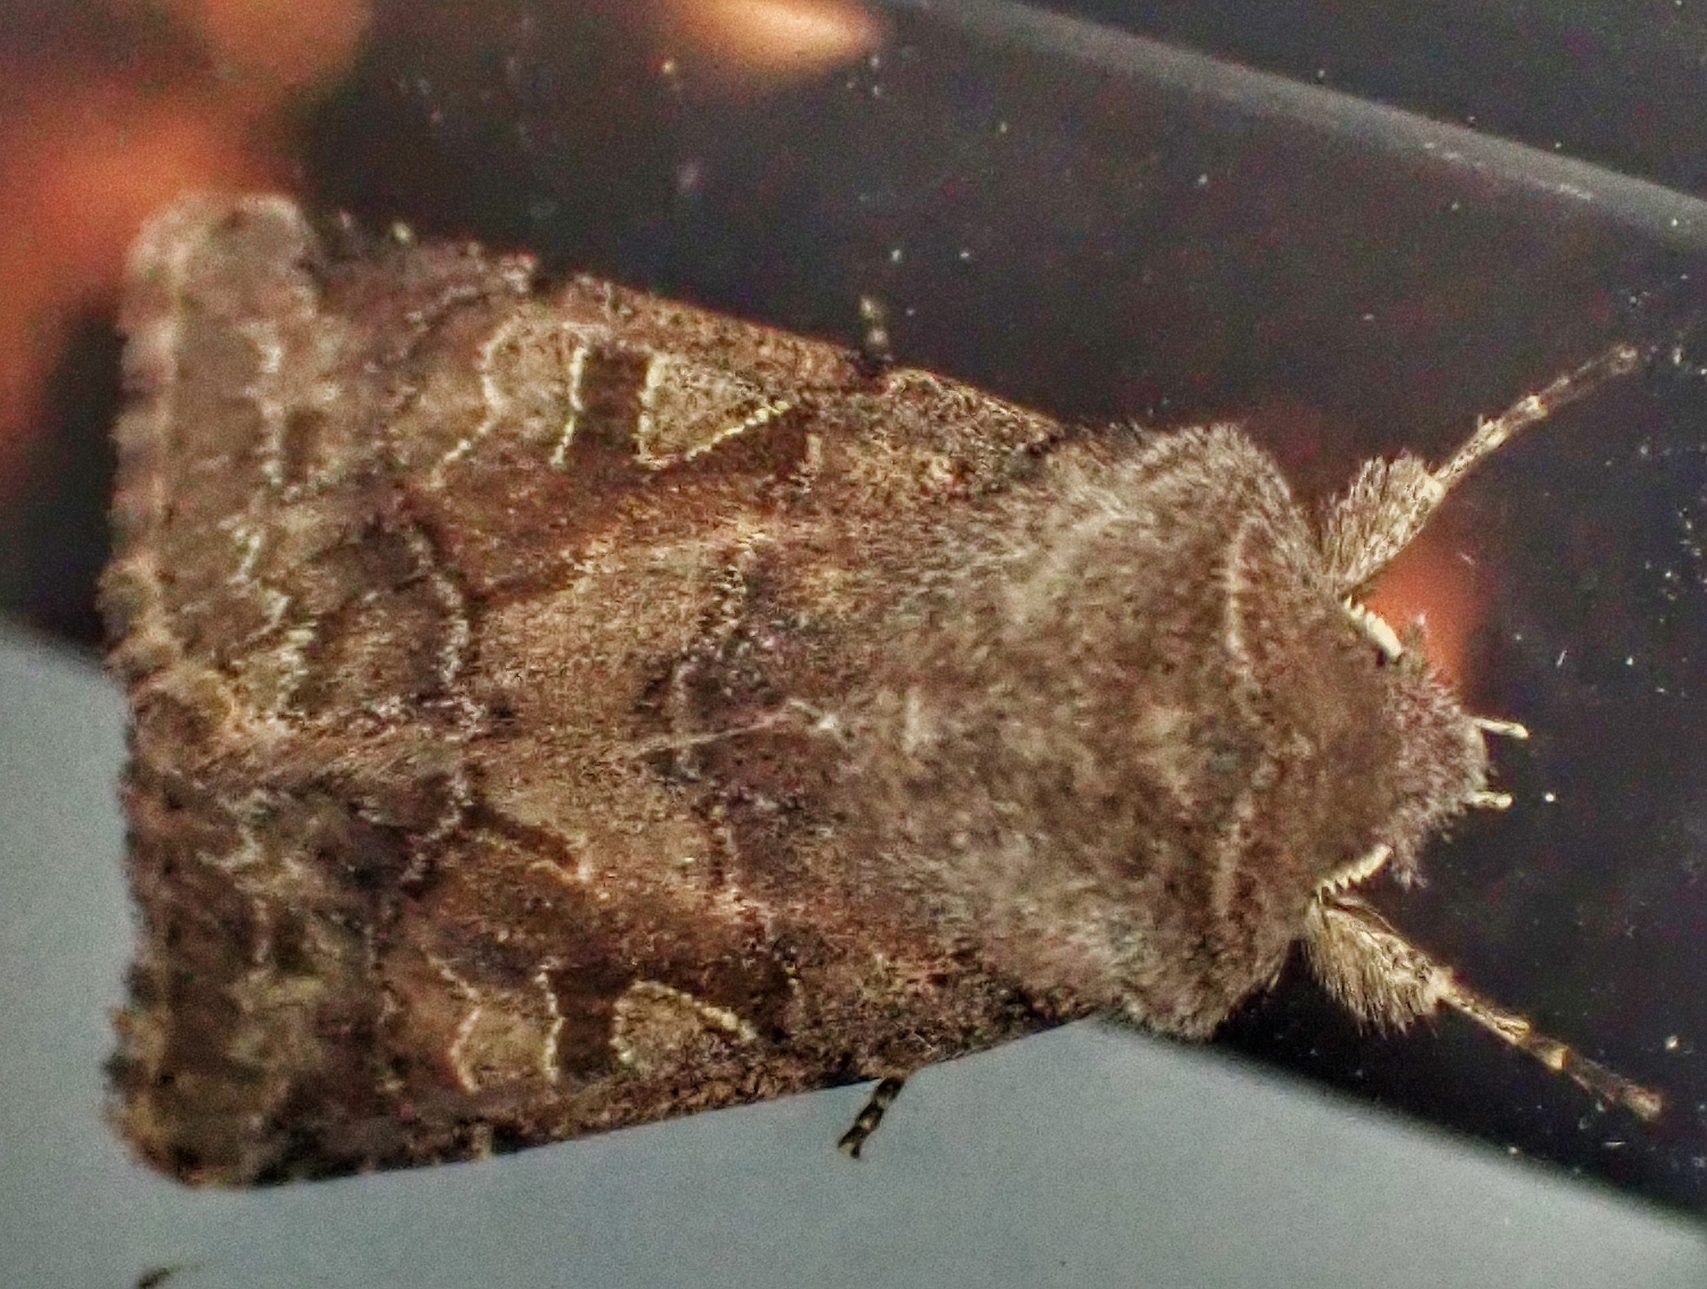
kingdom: Animalia
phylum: Arthropoda
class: Insecta
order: Lepidoptera
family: Noctuidae
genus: Orthosia
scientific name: Orthosia gothica
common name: Hebrew character
